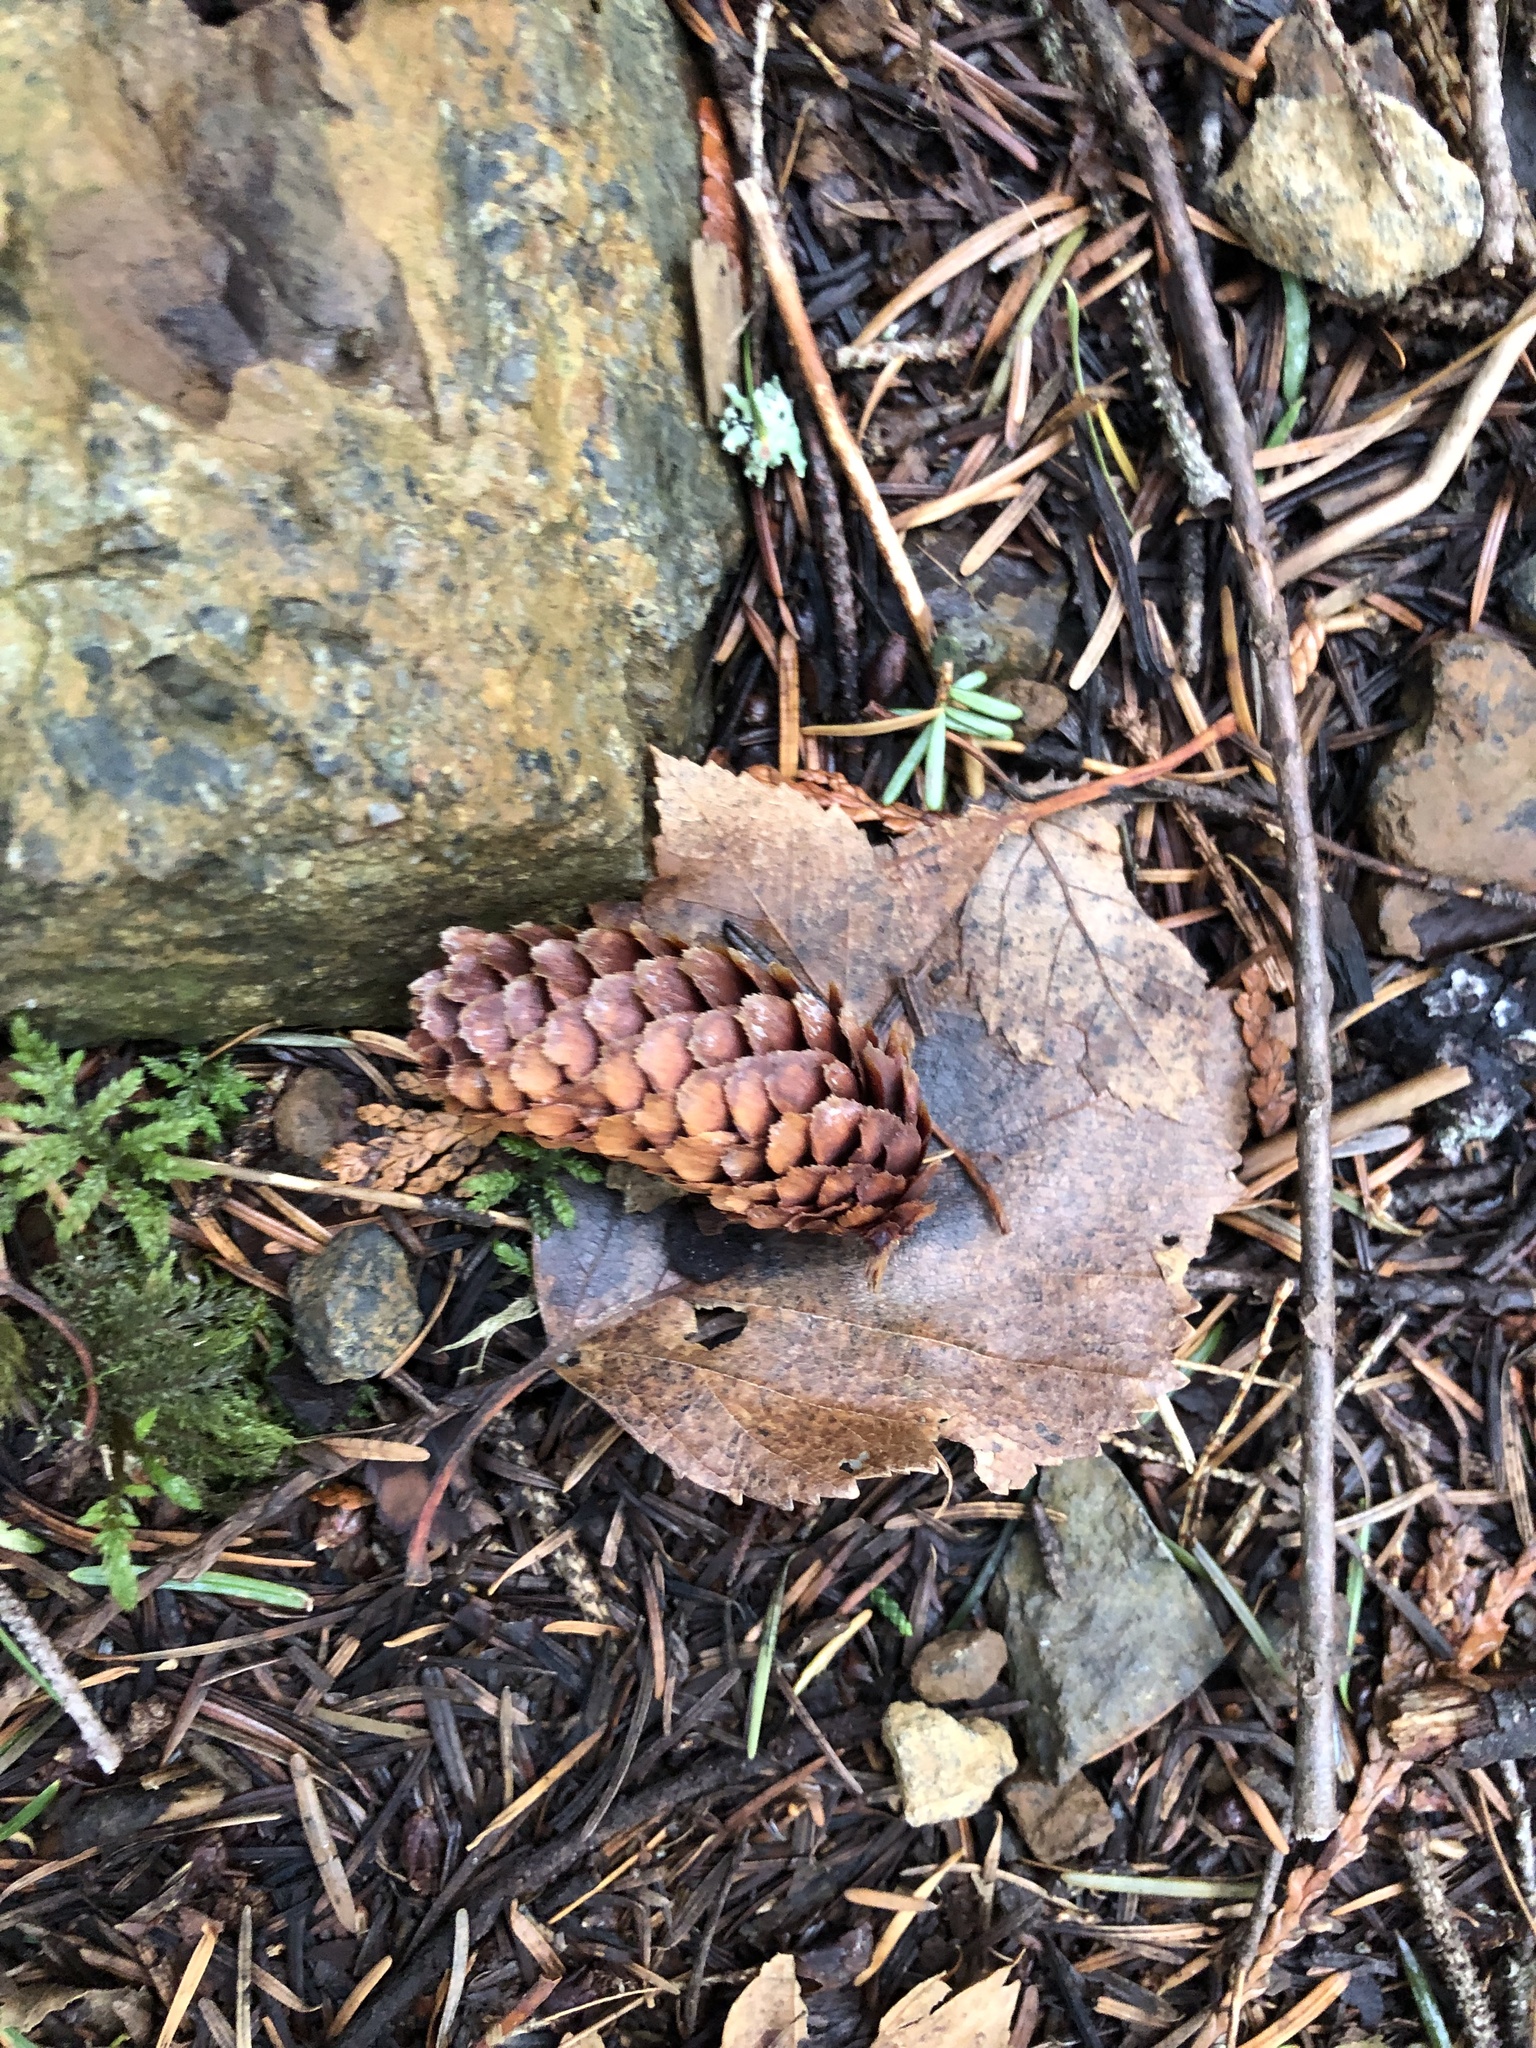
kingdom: Plantae
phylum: Tracheophyta
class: Pinopsida
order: Pinales
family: Pinaceae
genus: Picea
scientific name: Picea sitchensis
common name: Sitka spruce
